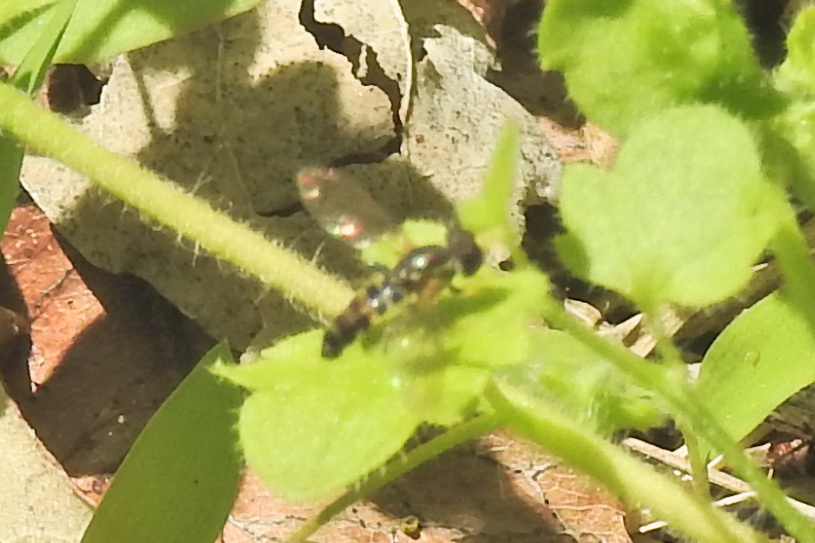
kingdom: Animalia
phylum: Arthropoda
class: Insecta
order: Diptera
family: Syrphidae
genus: Toxomerus
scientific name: Toxomerus geminatus
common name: Eastern calligrapher
